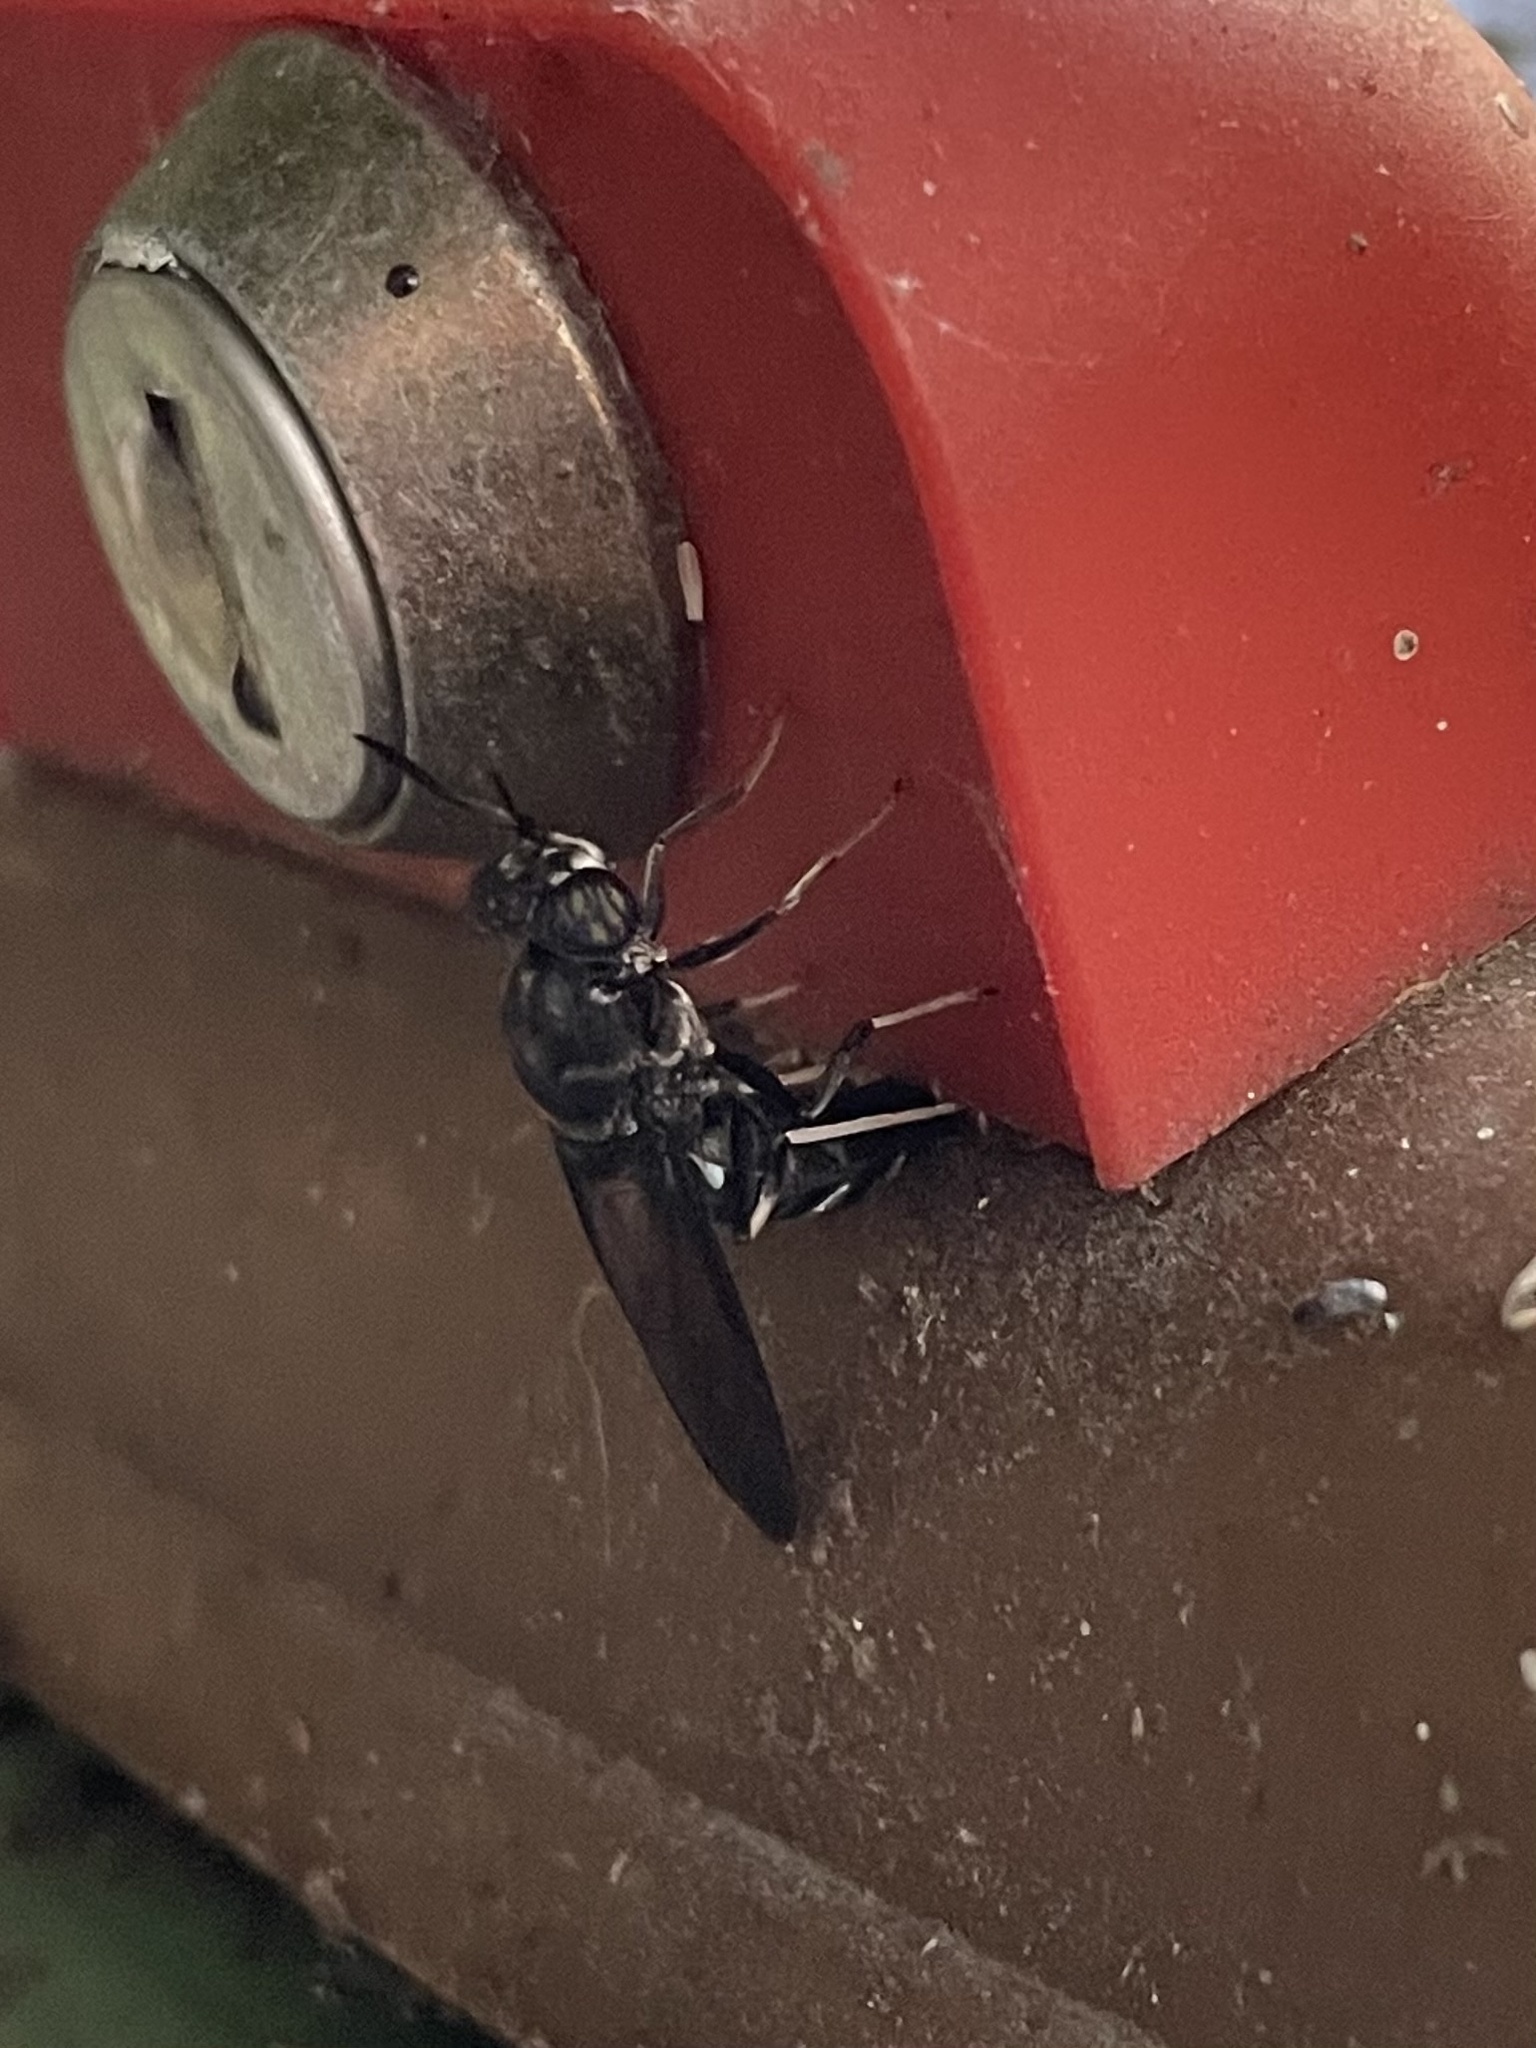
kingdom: Animalia
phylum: Arthropoda
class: Insecta
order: Diptera
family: Stratiomyidae
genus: Hermetia
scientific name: Hermetia illucens
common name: Black soldier fly
